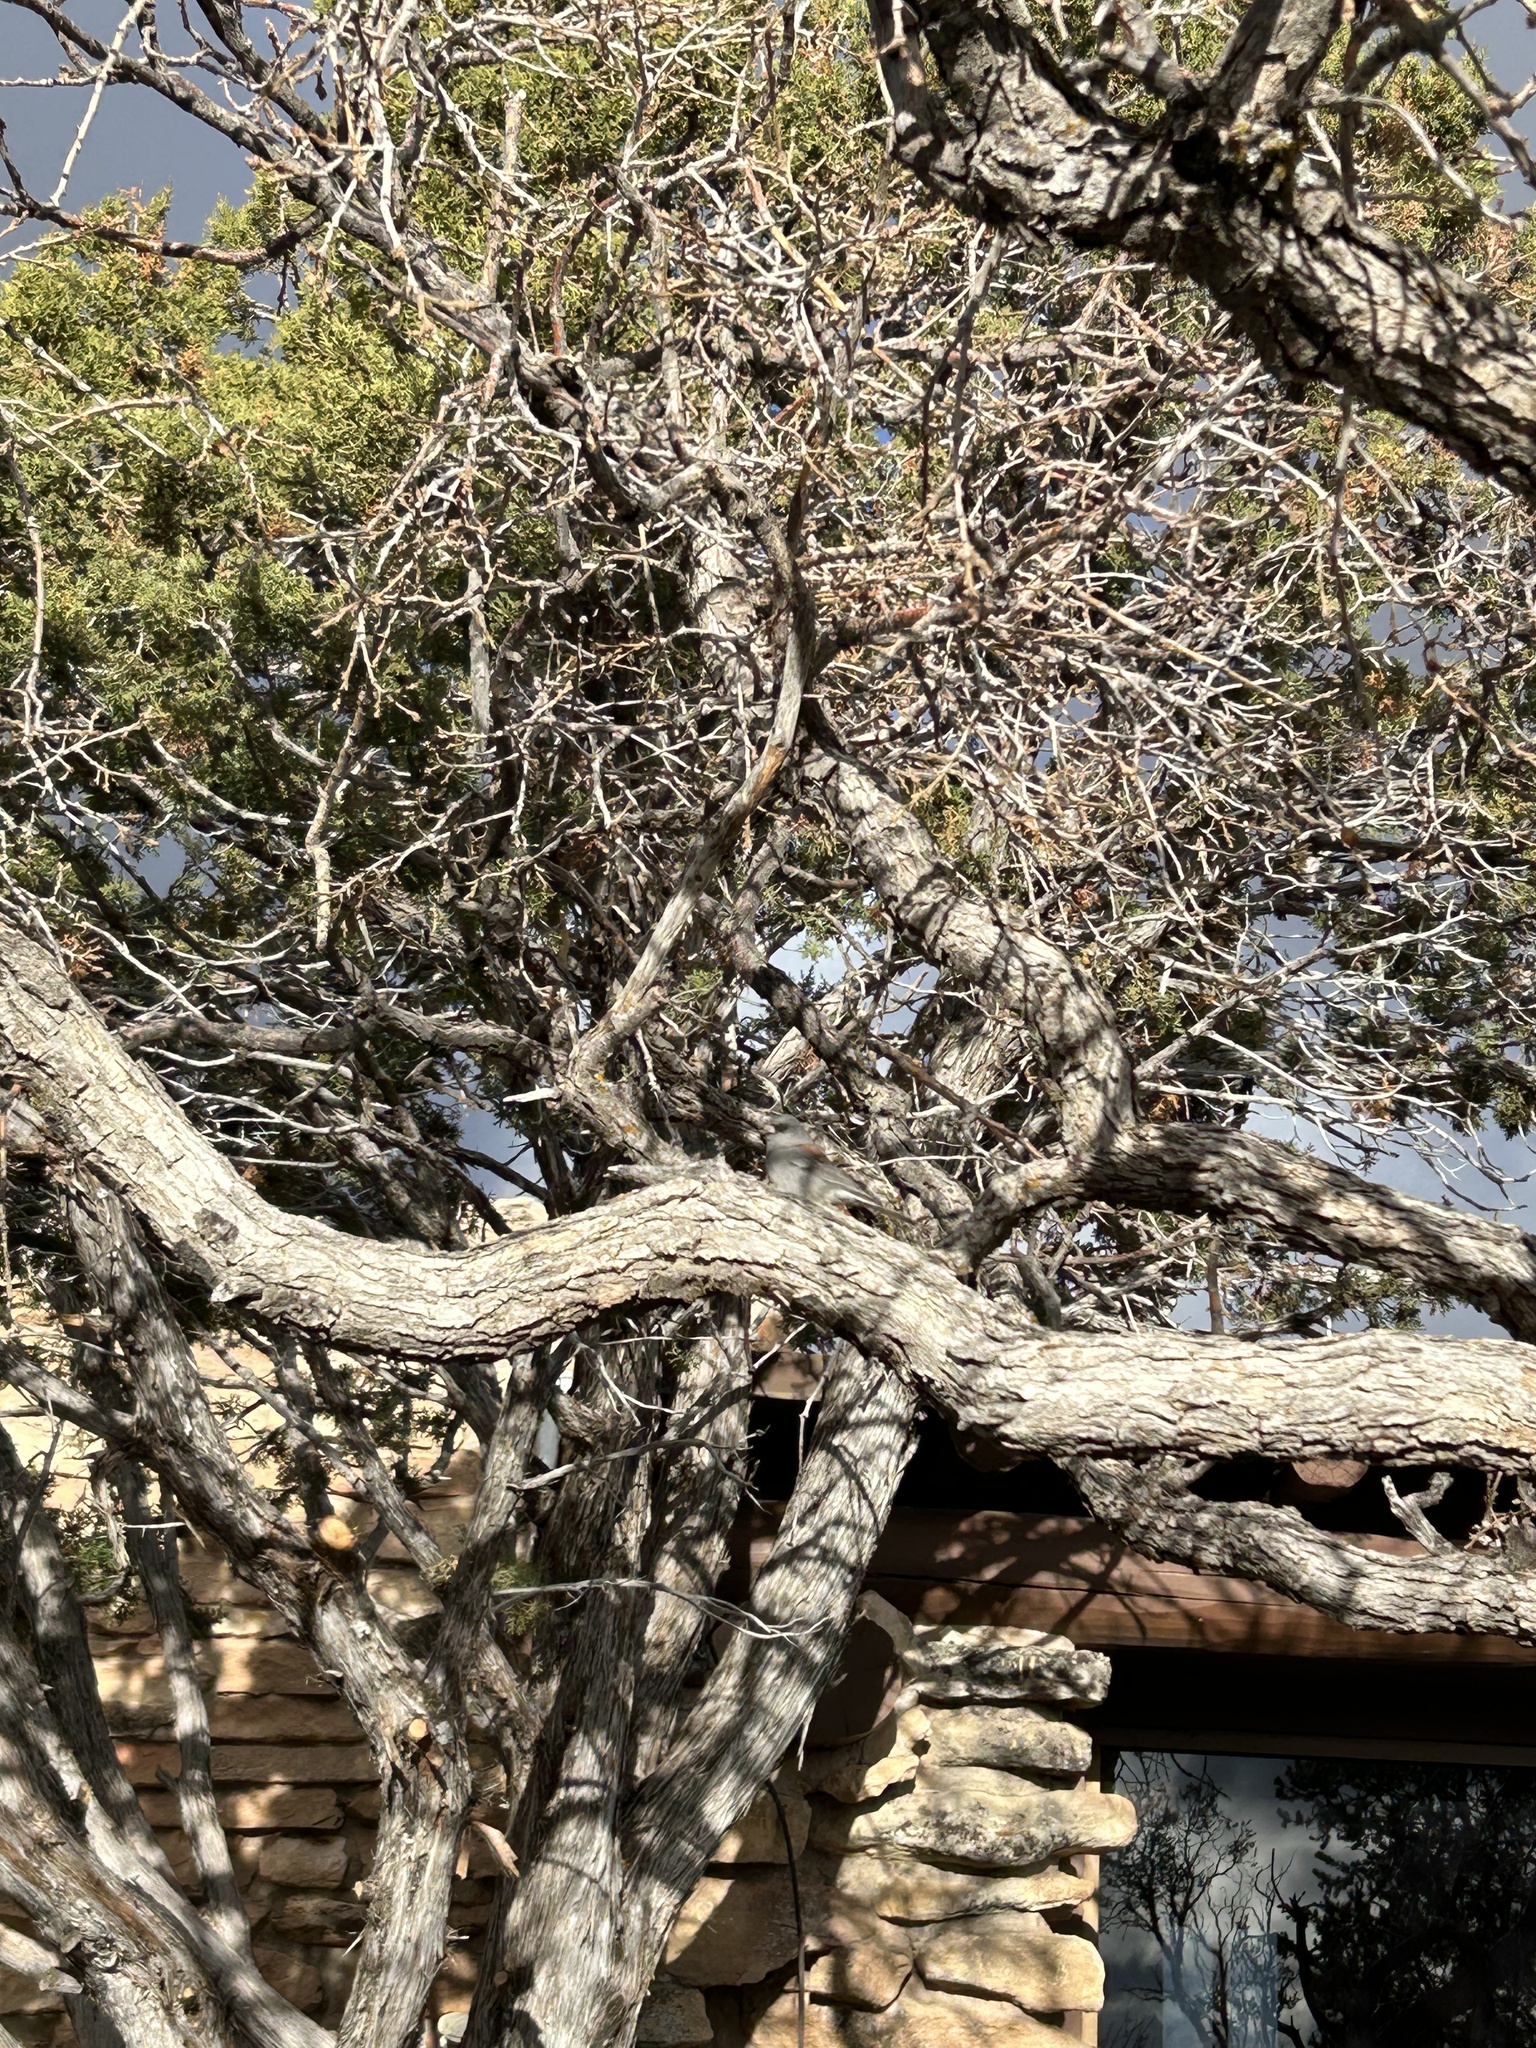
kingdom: Animalia
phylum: Chordata
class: Aves
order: Passeriformes
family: Passerellidae
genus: Junco
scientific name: Junco hyemalis
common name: Dark-eyed junco
